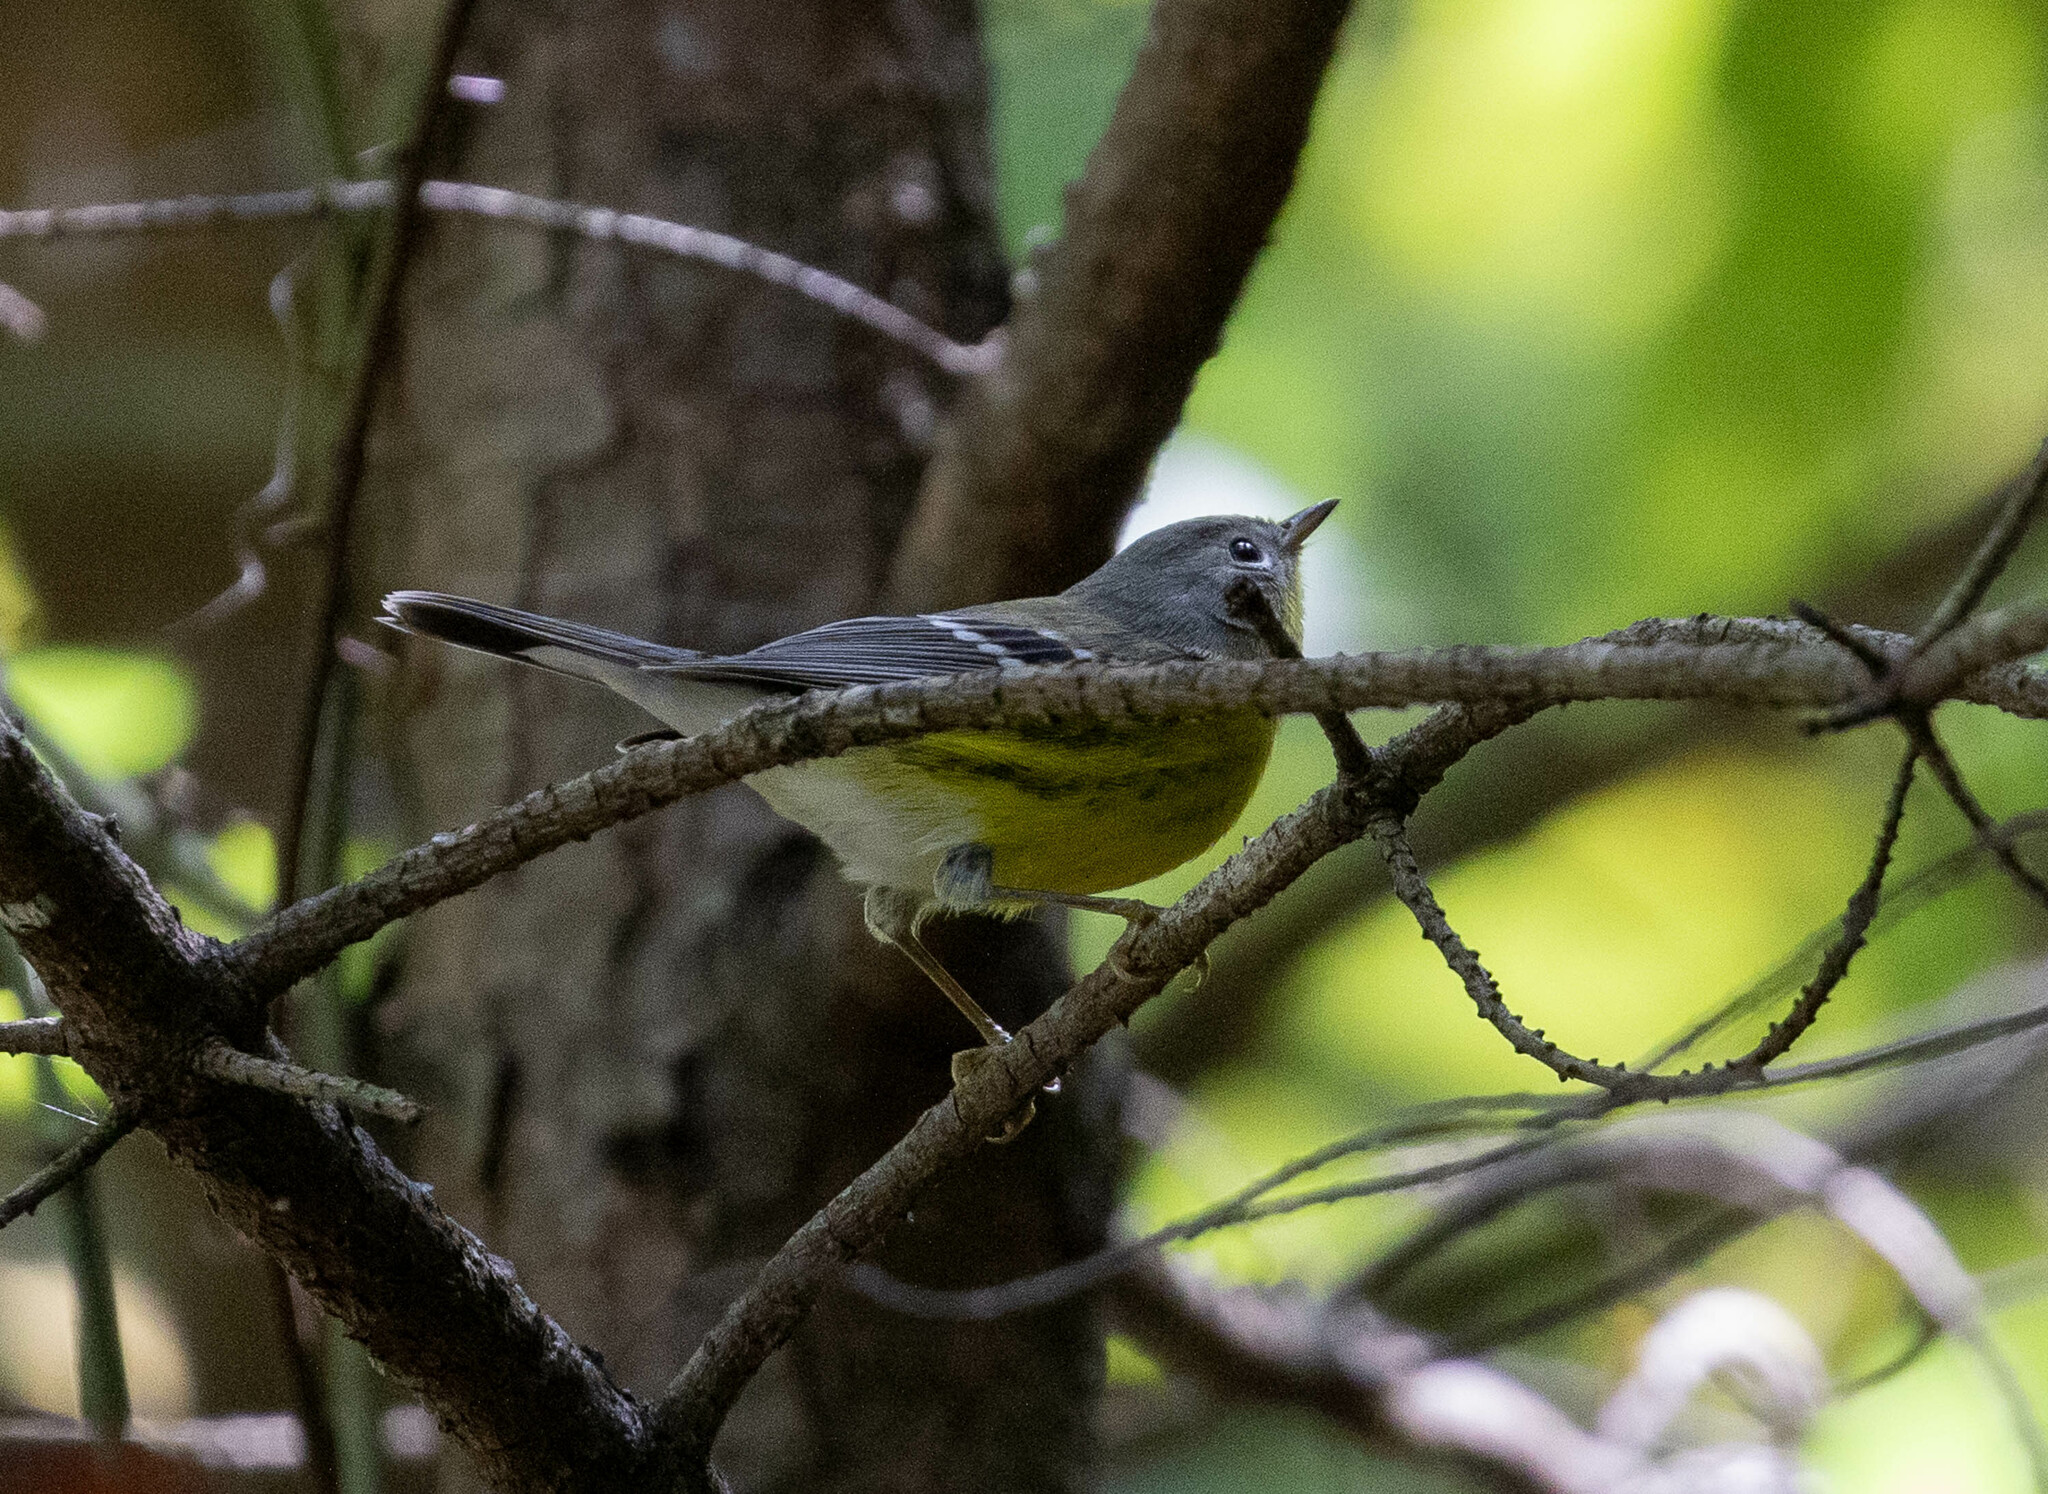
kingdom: Animalia
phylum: Chordata
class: Aves
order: Passeriformes
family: Parulidae
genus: Setophaga
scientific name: Setophaga magnolia
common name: Magnolia warbler
